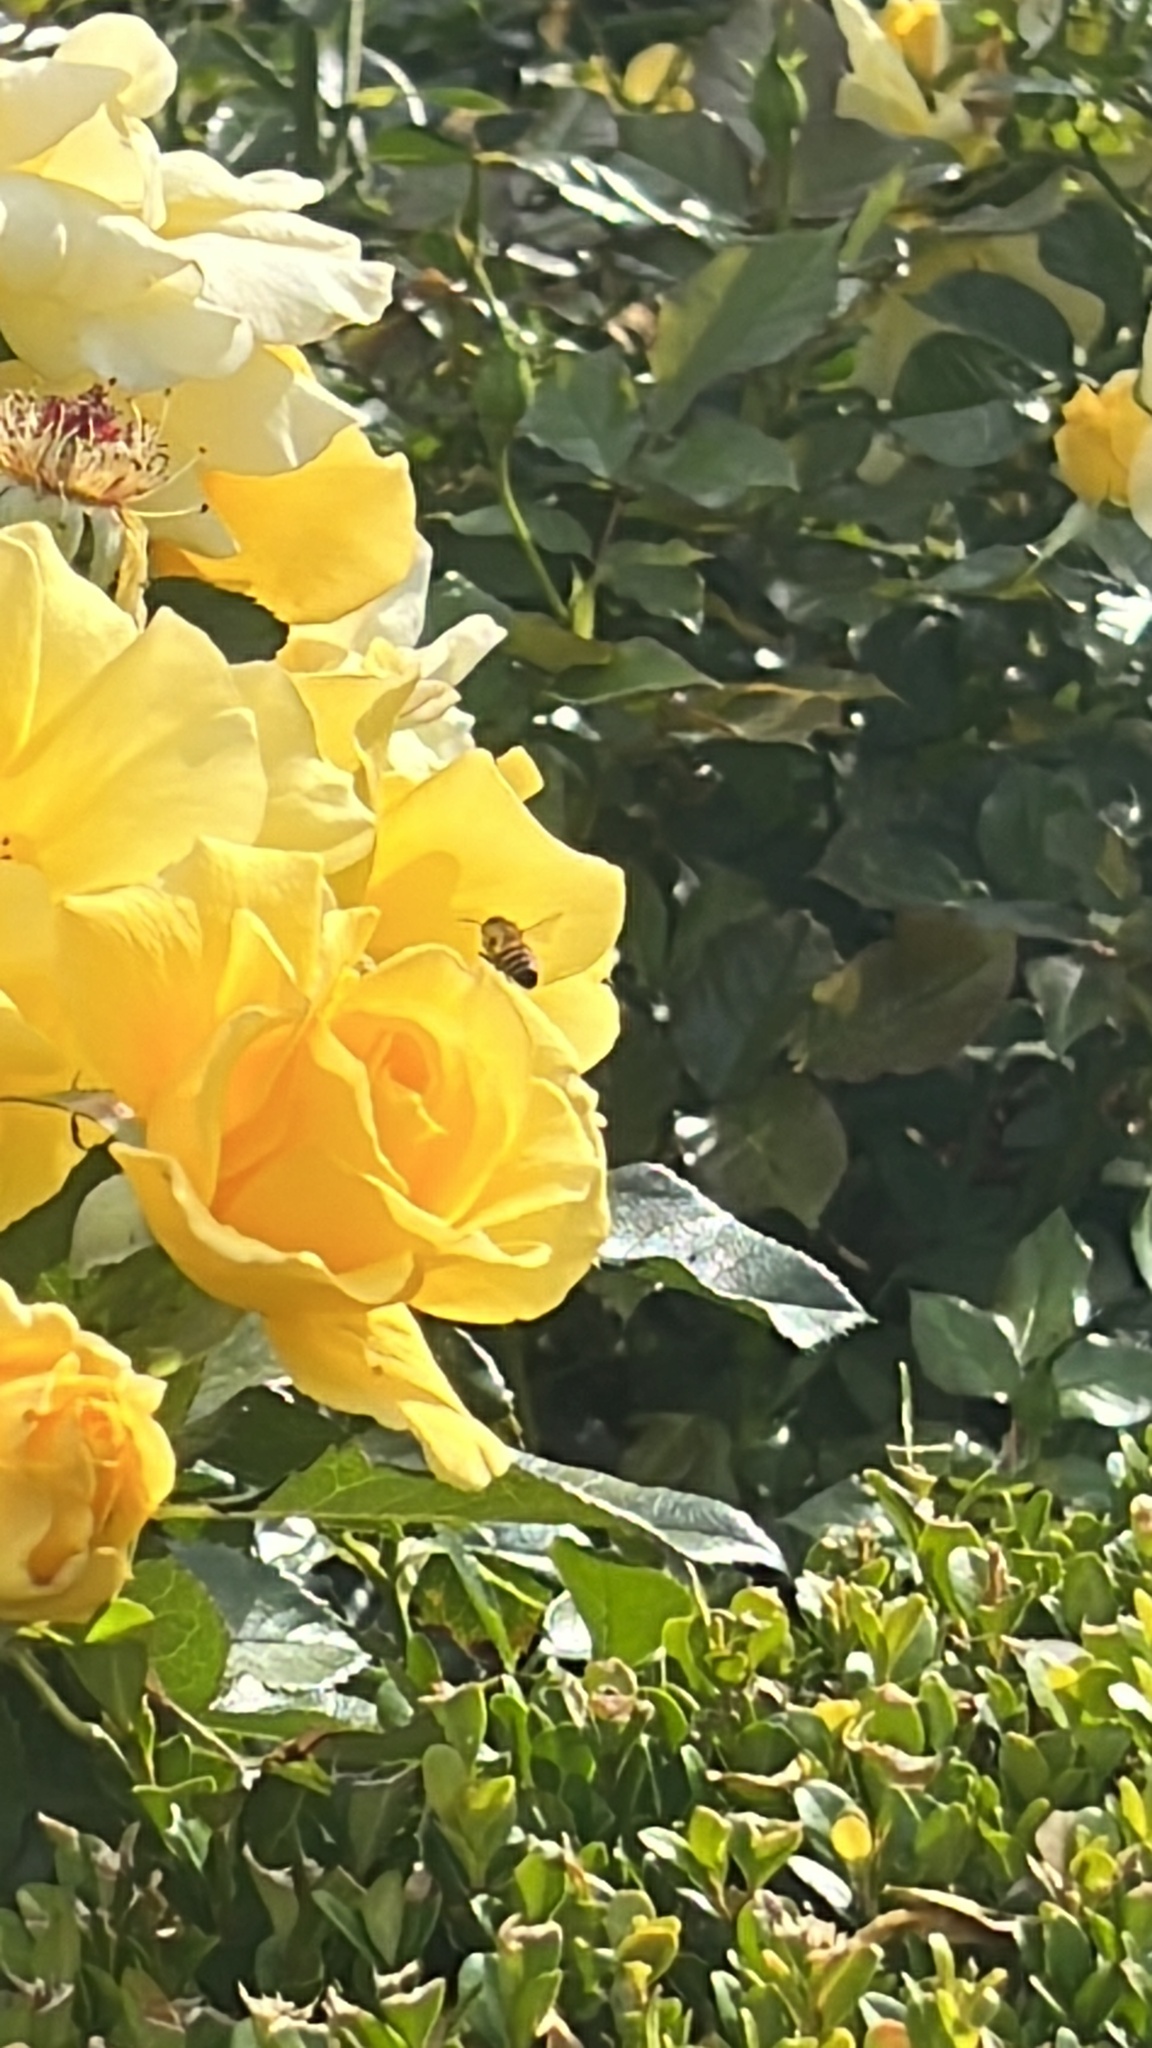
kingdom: Animalia
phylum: Arthropoda
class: Insecta
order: Hymenoptera
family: Apidae
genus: Apis
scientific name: Apis mellifera
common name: Honey bee
